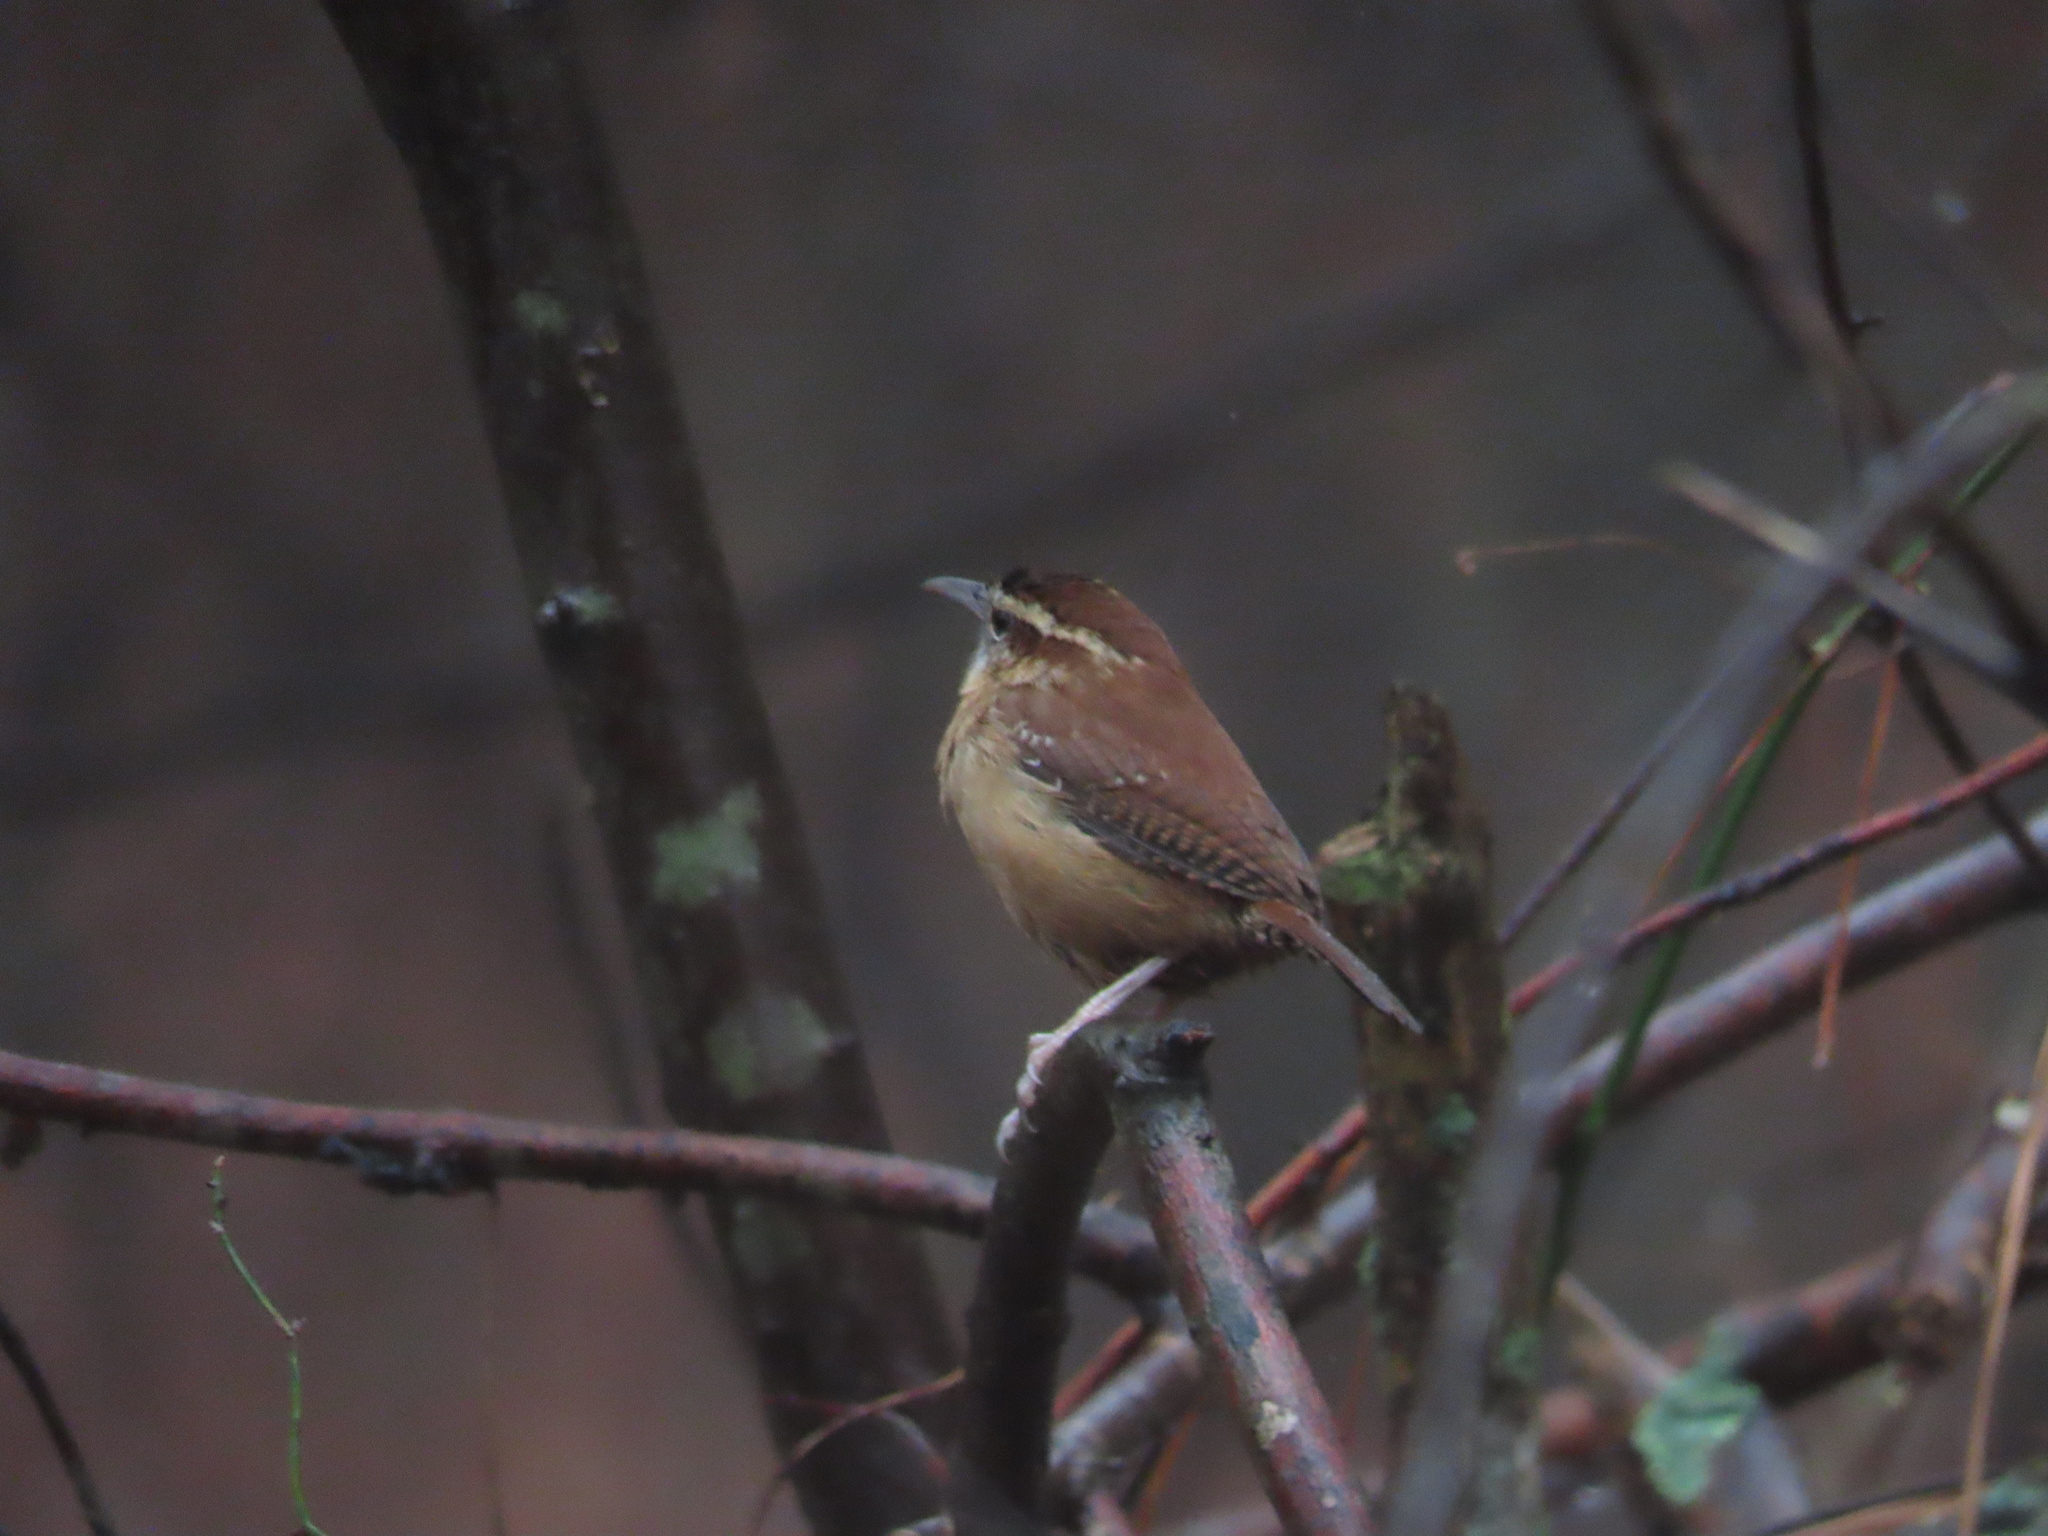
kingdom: Animalia
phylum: Chordata
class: Aves
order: Passeriformes
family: Troglodytidae
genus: Thryothorus
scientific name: Thryothorus ludovicianus
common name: Carolina wren
